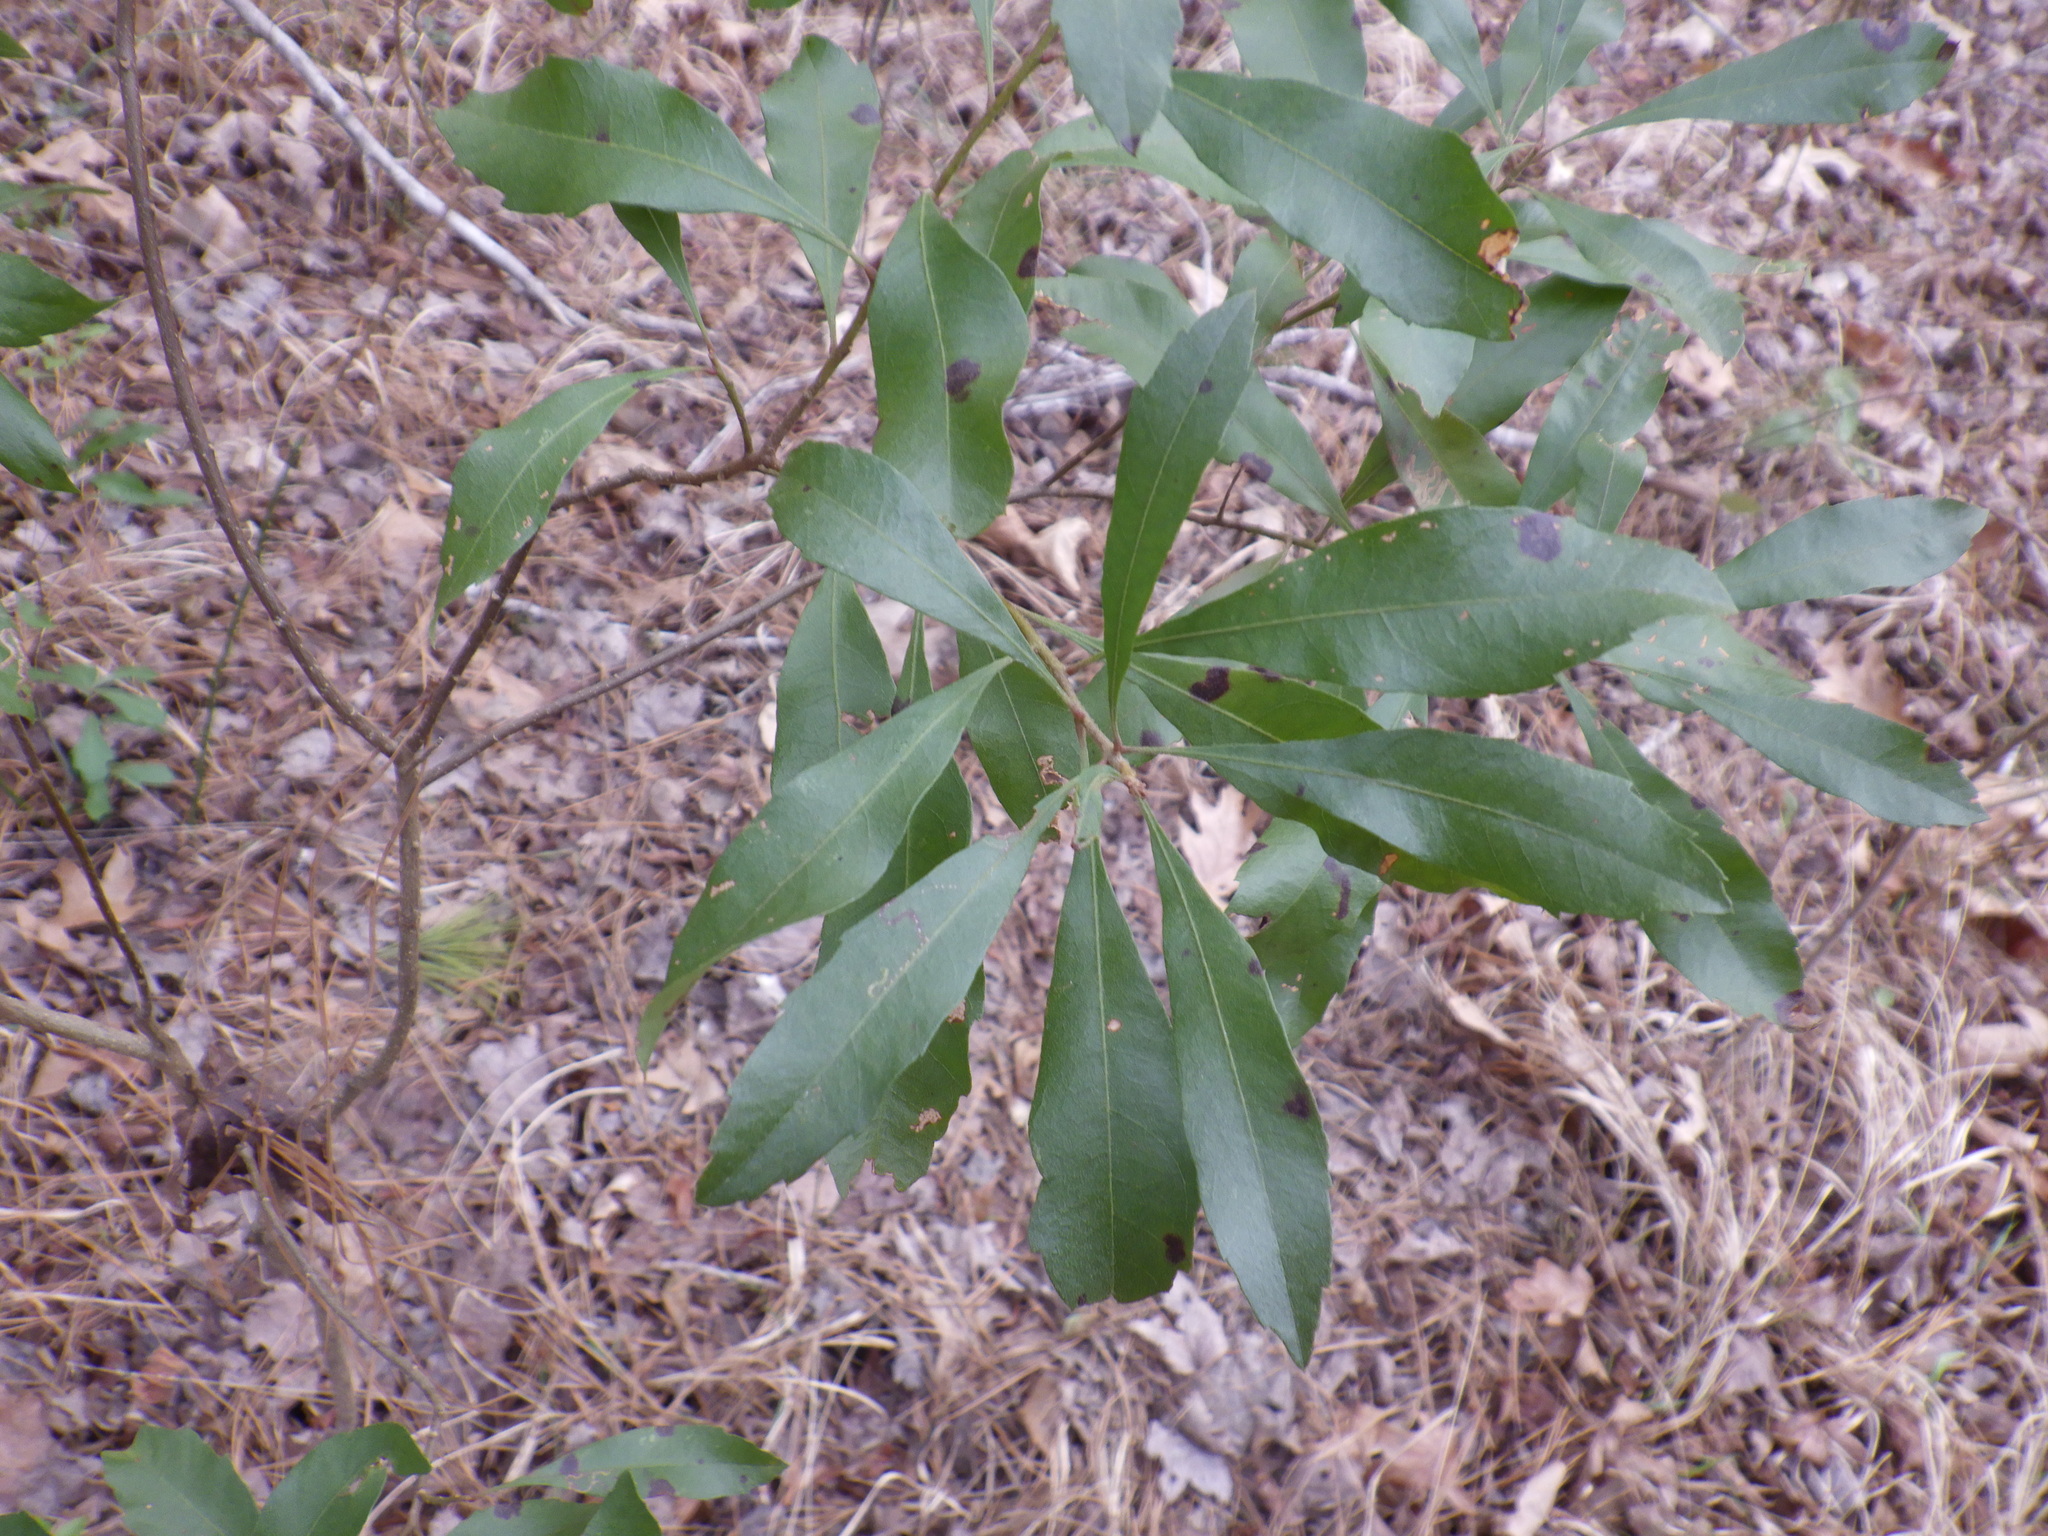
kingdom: Plantae
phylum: Tracheophyta
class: Magnoliopsida
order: Fagales
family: Myricaceae
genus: Morella
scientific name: Morella cerifera
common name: Wax myrtle
